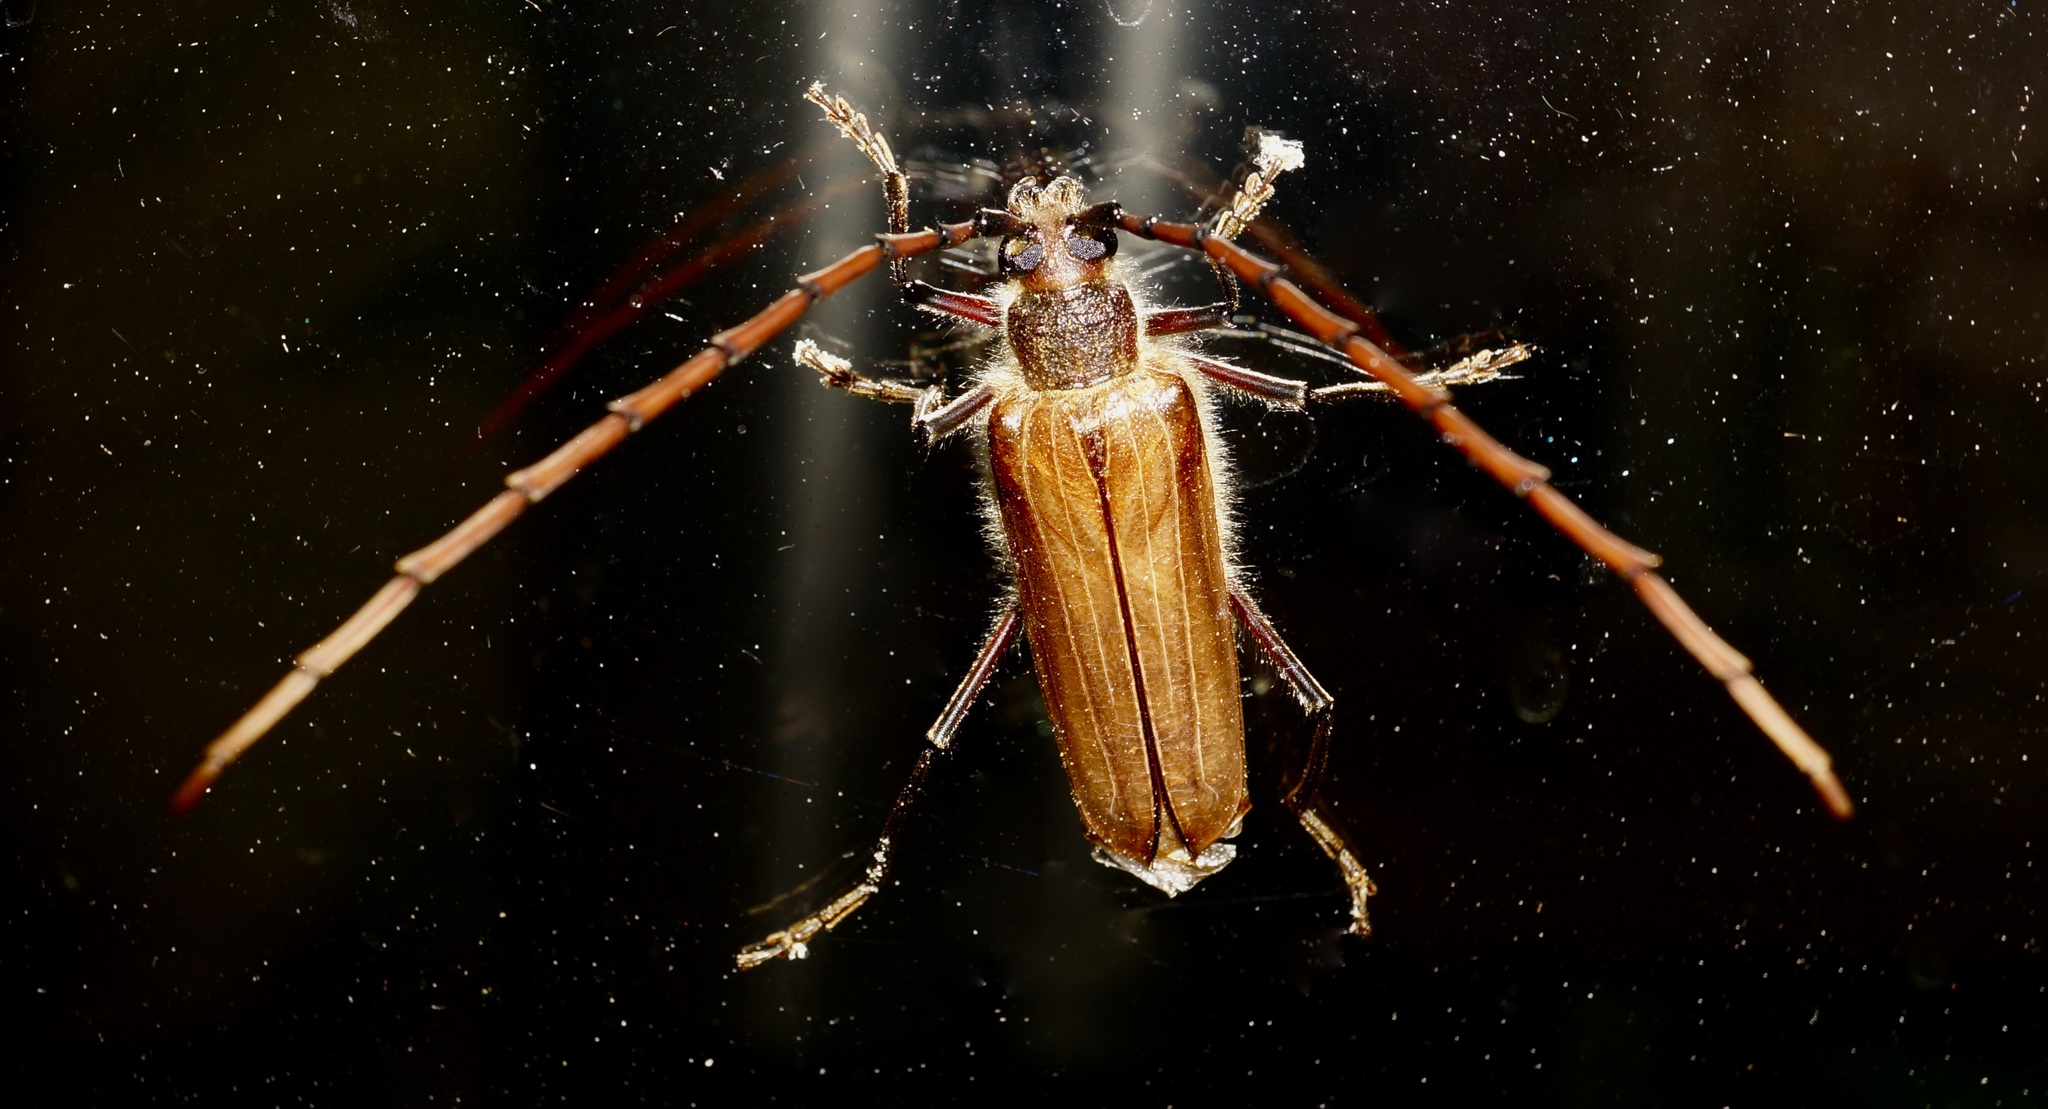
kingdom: Animalia
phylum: Arthropoda
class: Insecta
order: Coleoptera
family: Cerambycidae
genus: Ochrocydus
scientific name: Ochrocydus huttoni
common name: Kanuka longhorn
